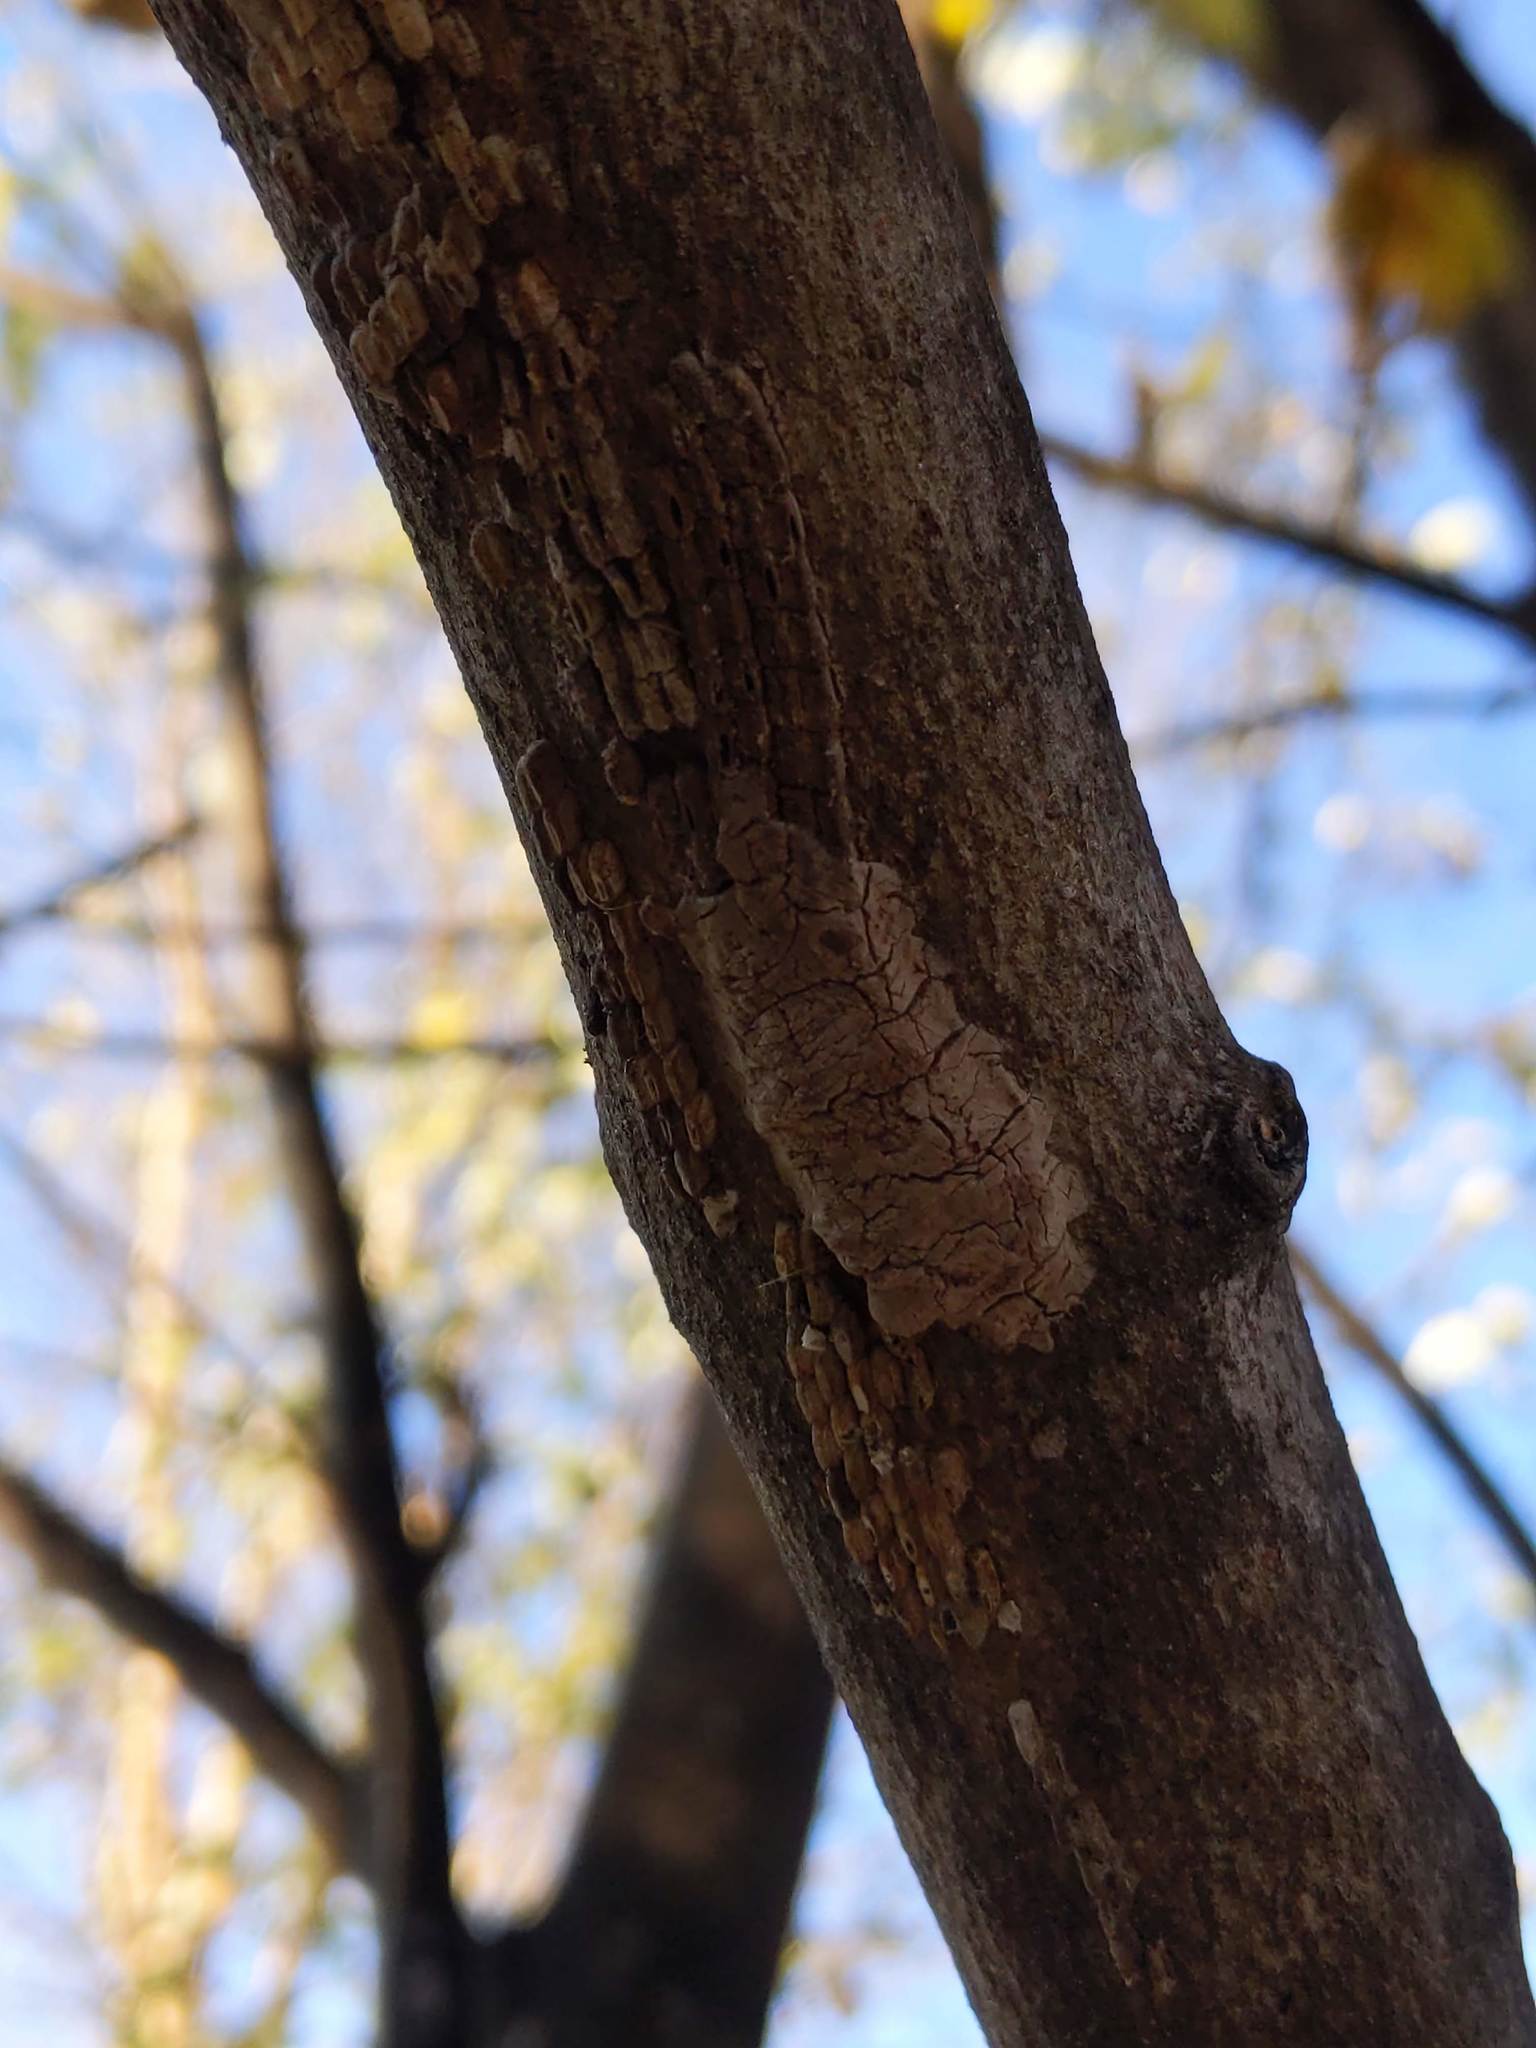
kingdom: Animalia
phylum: Arthropoda
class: Insecta
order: Hemiptera
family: Fulgoridae
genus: Lycorma
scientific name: Lycorma delicatula
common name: Spotted lanternfly
